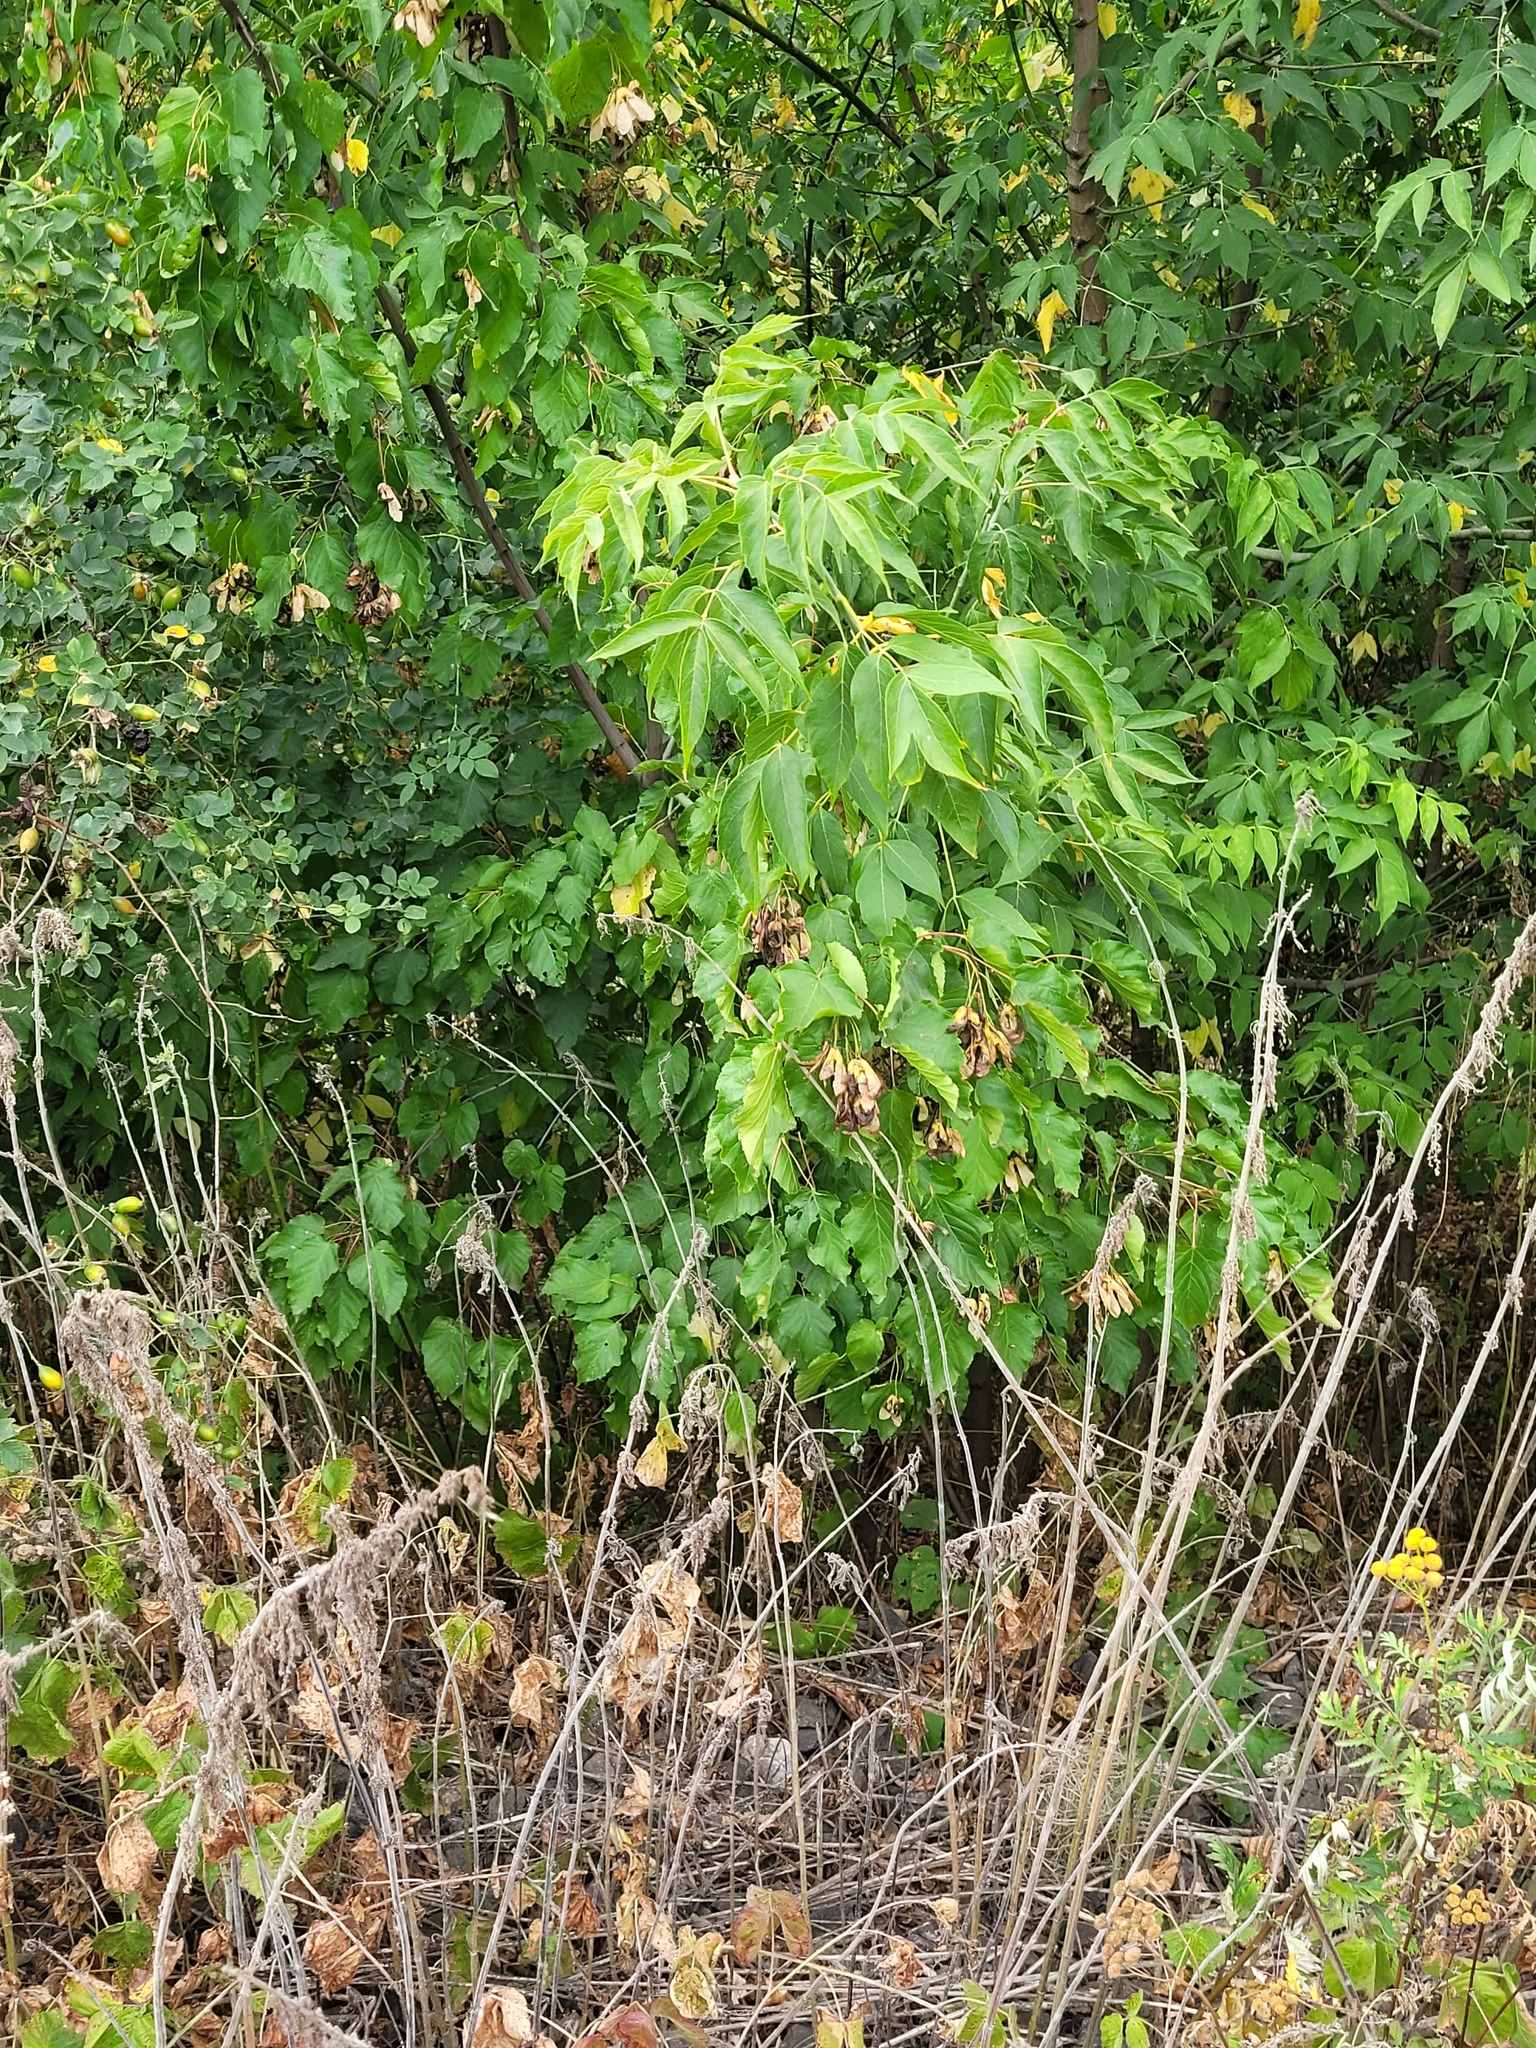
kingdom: Plantae
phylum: Tracheophyta
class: Magnoliopsida
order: Sapindales
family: Sapindaceae
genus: Acer
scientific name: Acer tataricum
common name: Tartar maple
